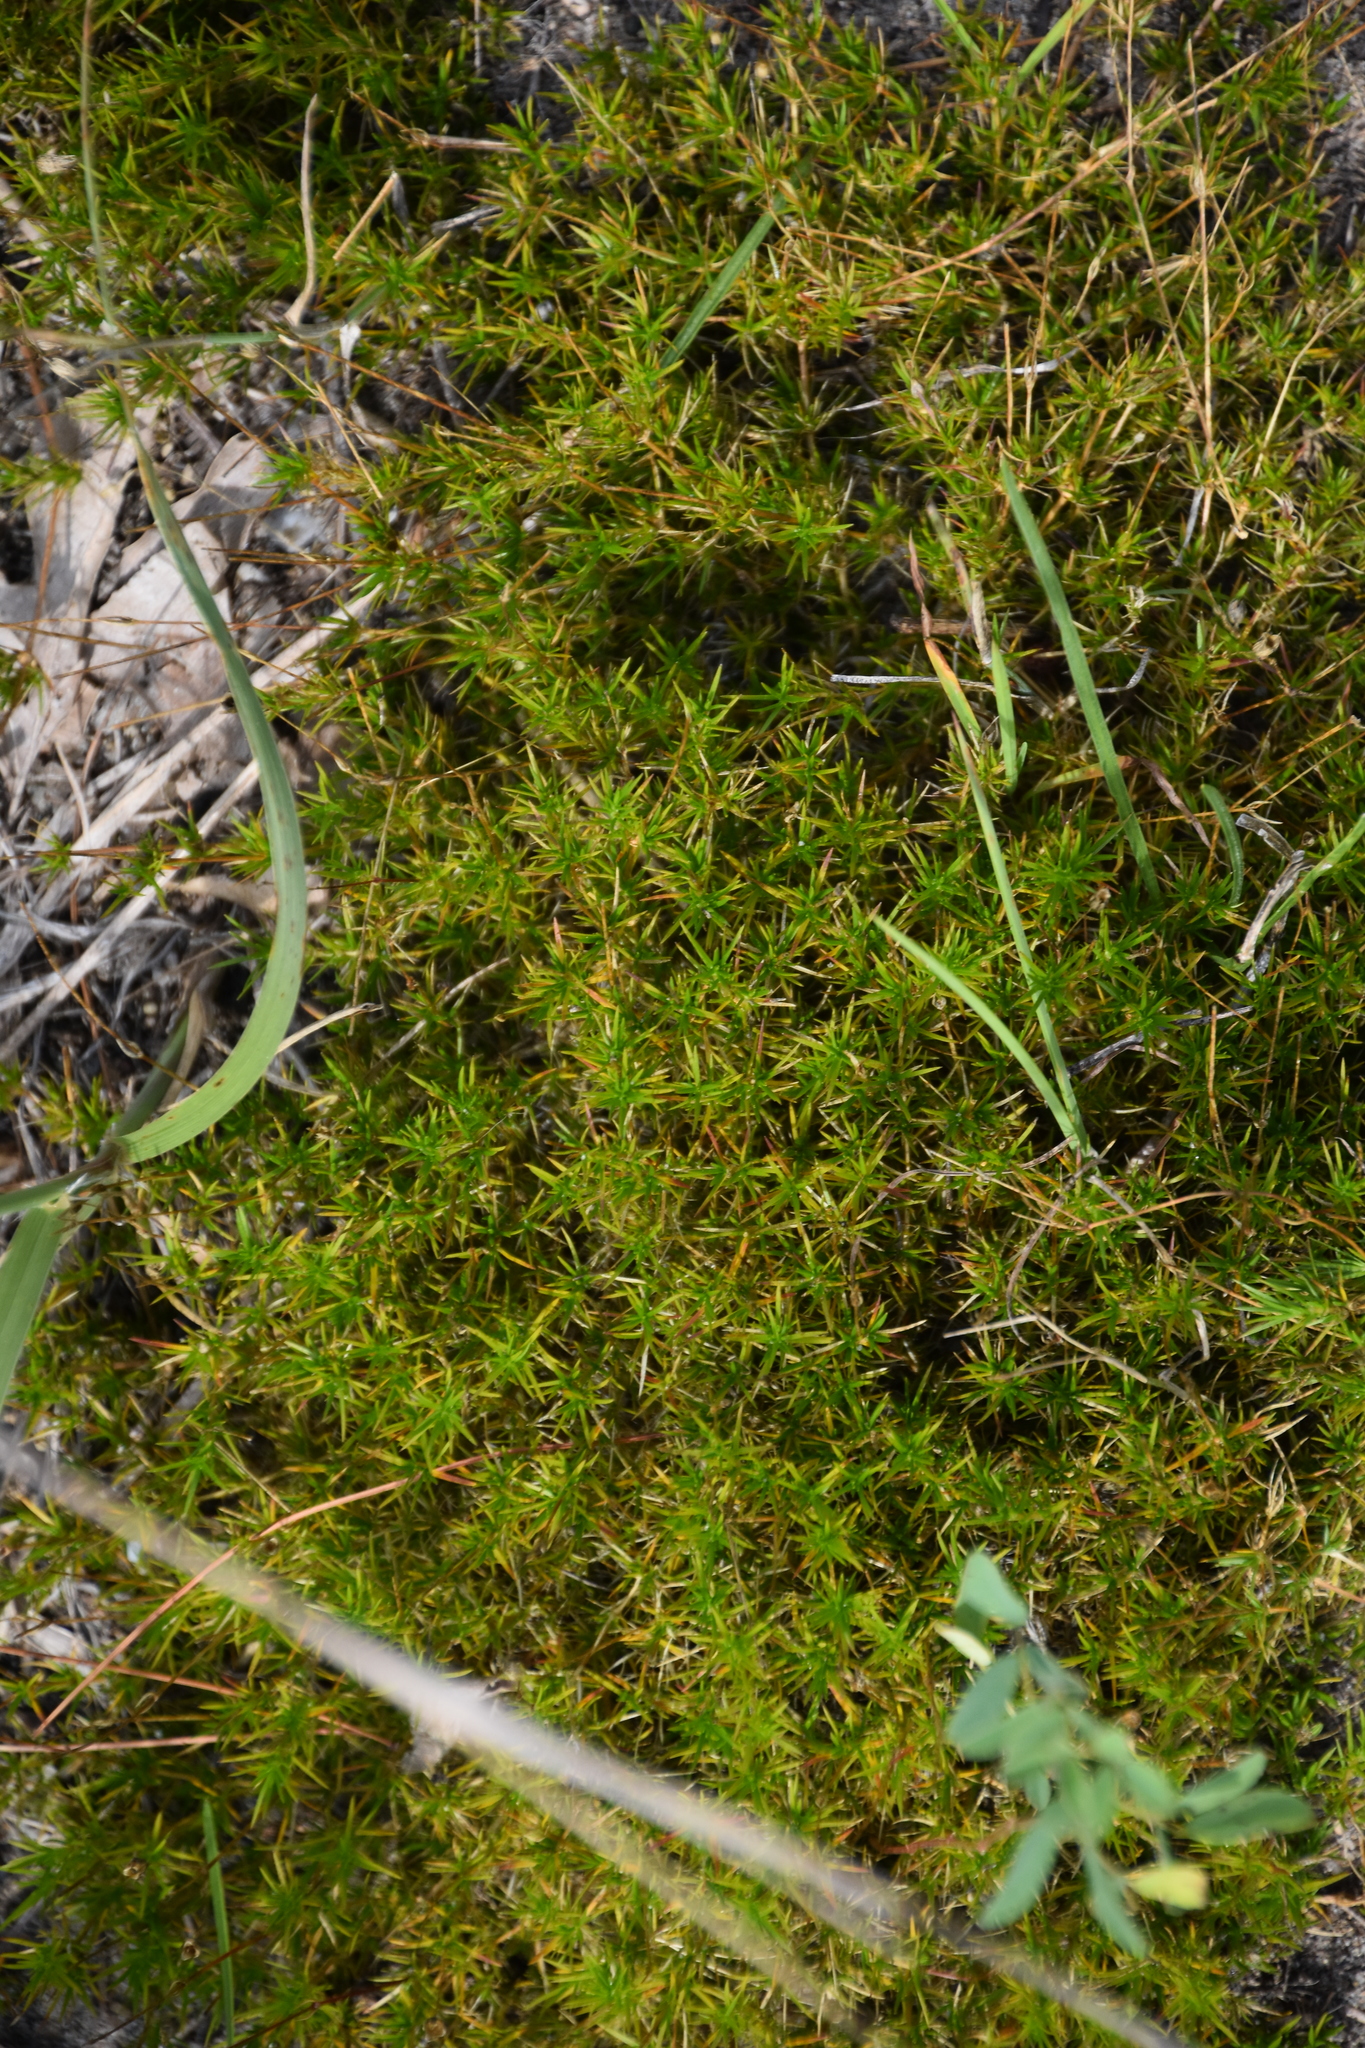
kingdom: Plantae
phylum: Tracheophyta
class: Magnoliopsida
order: Caryophyllales
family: Caryophyllaceae
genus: Sabulina
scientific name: Sabulina michauxii
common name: Michaux's stitchwort
